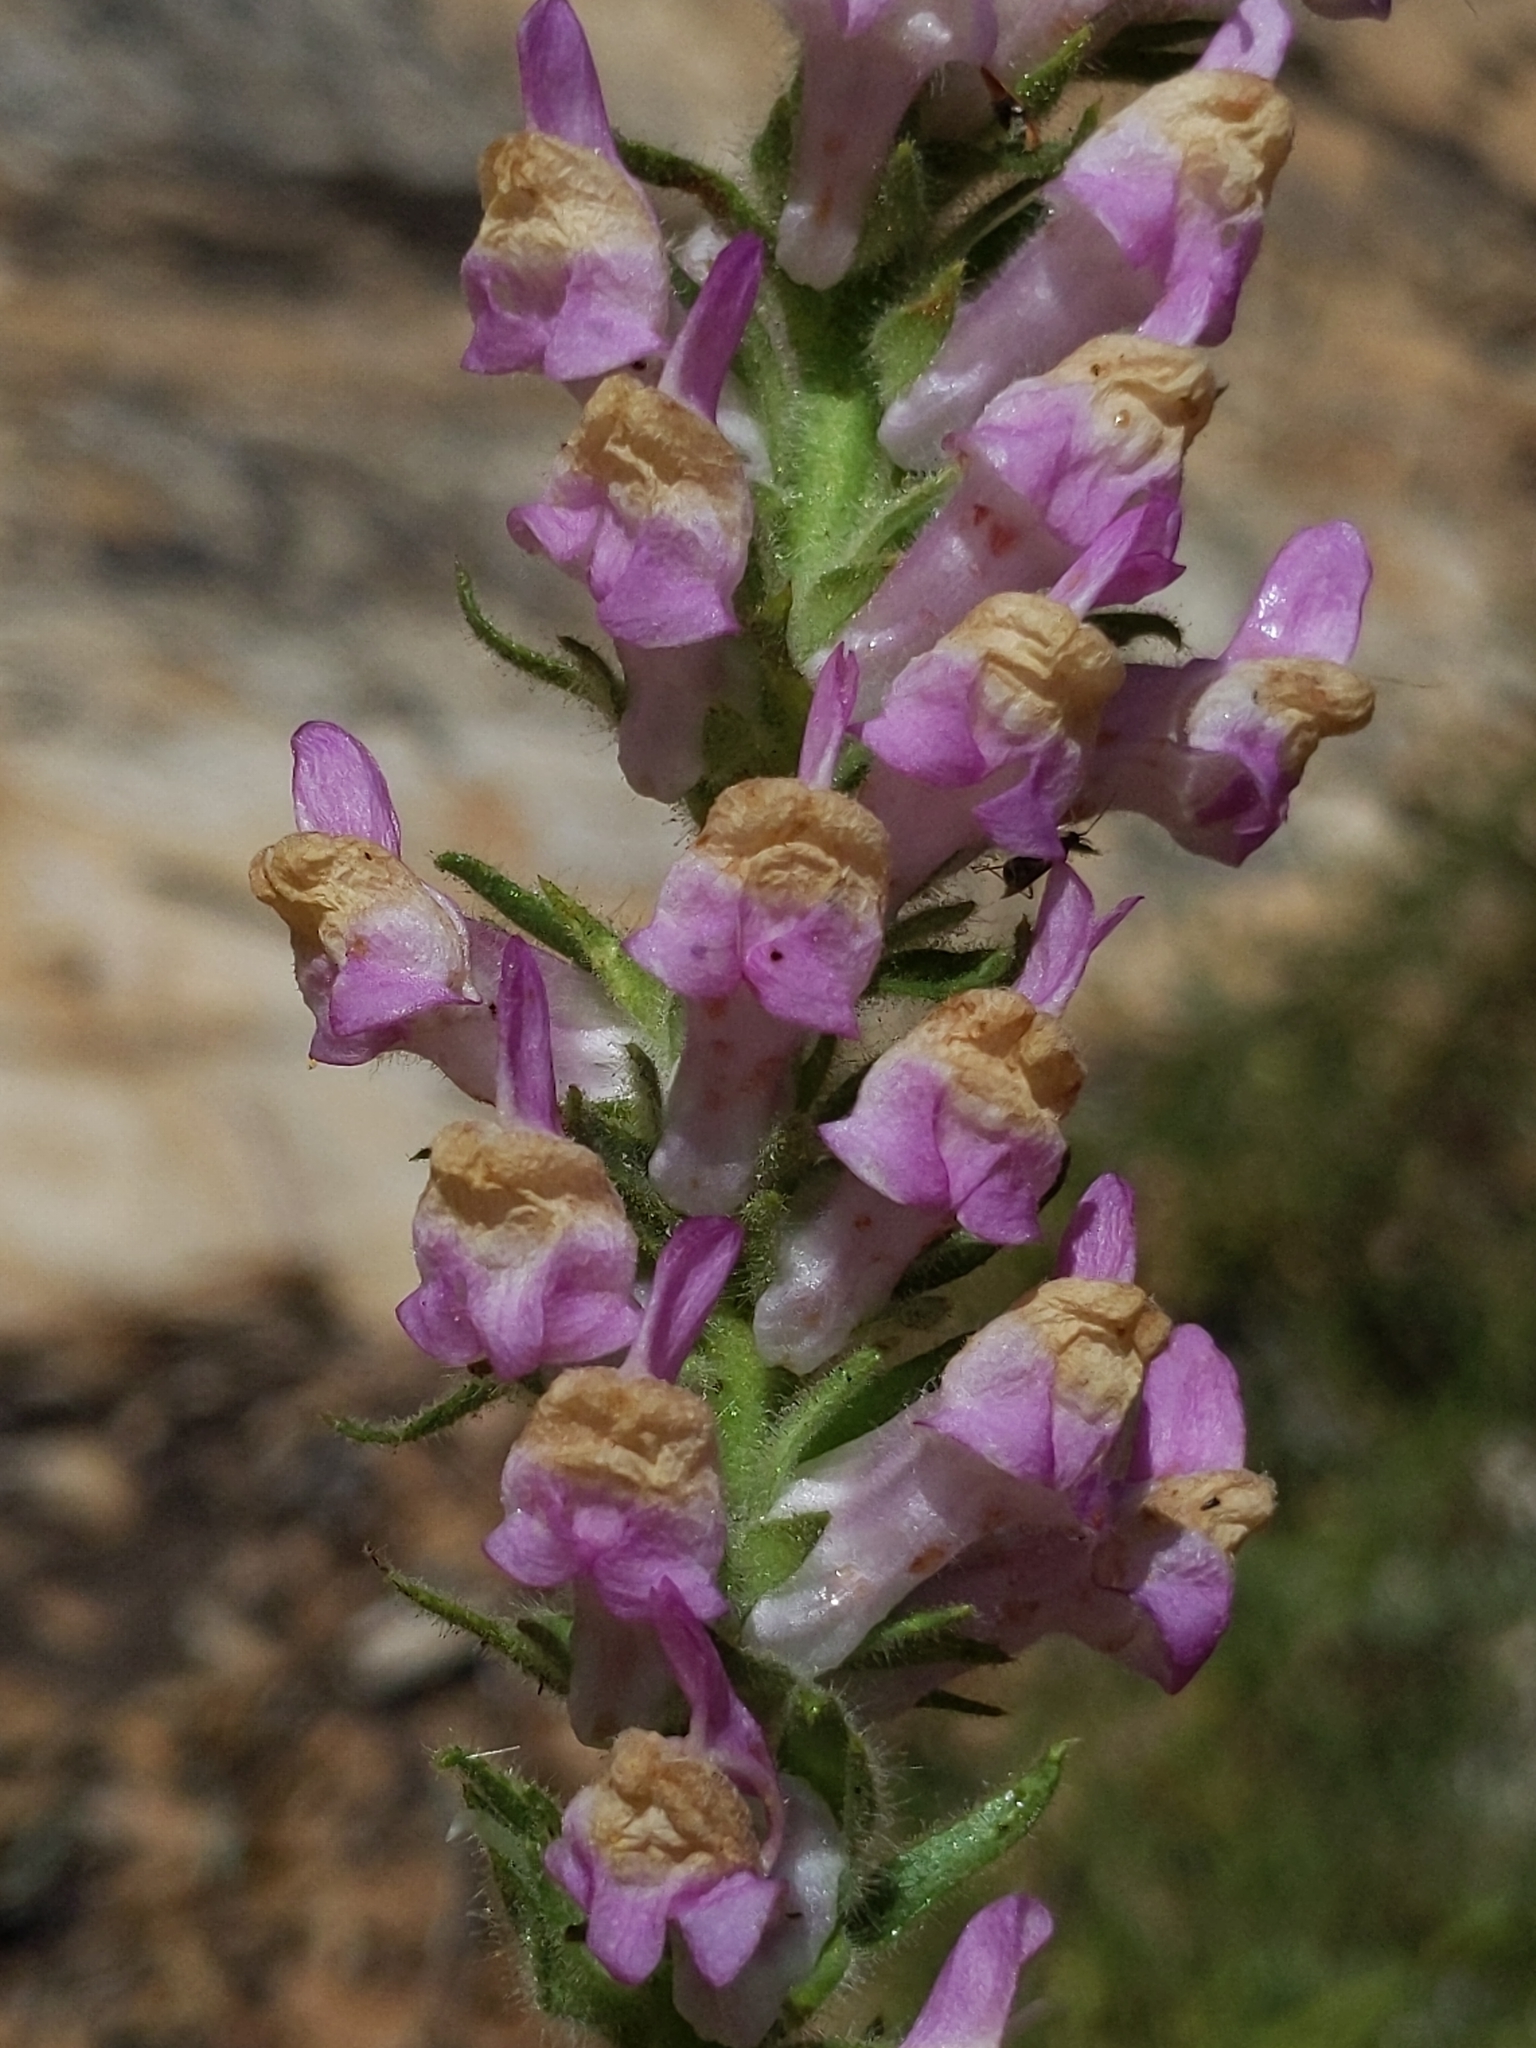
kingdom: Plantae
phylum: Tracheophyta
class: Magnoliopsida
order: Lamiales
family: Plantaginaceae
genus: Sairocarpus
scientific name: Sairocarpus multiflorus
